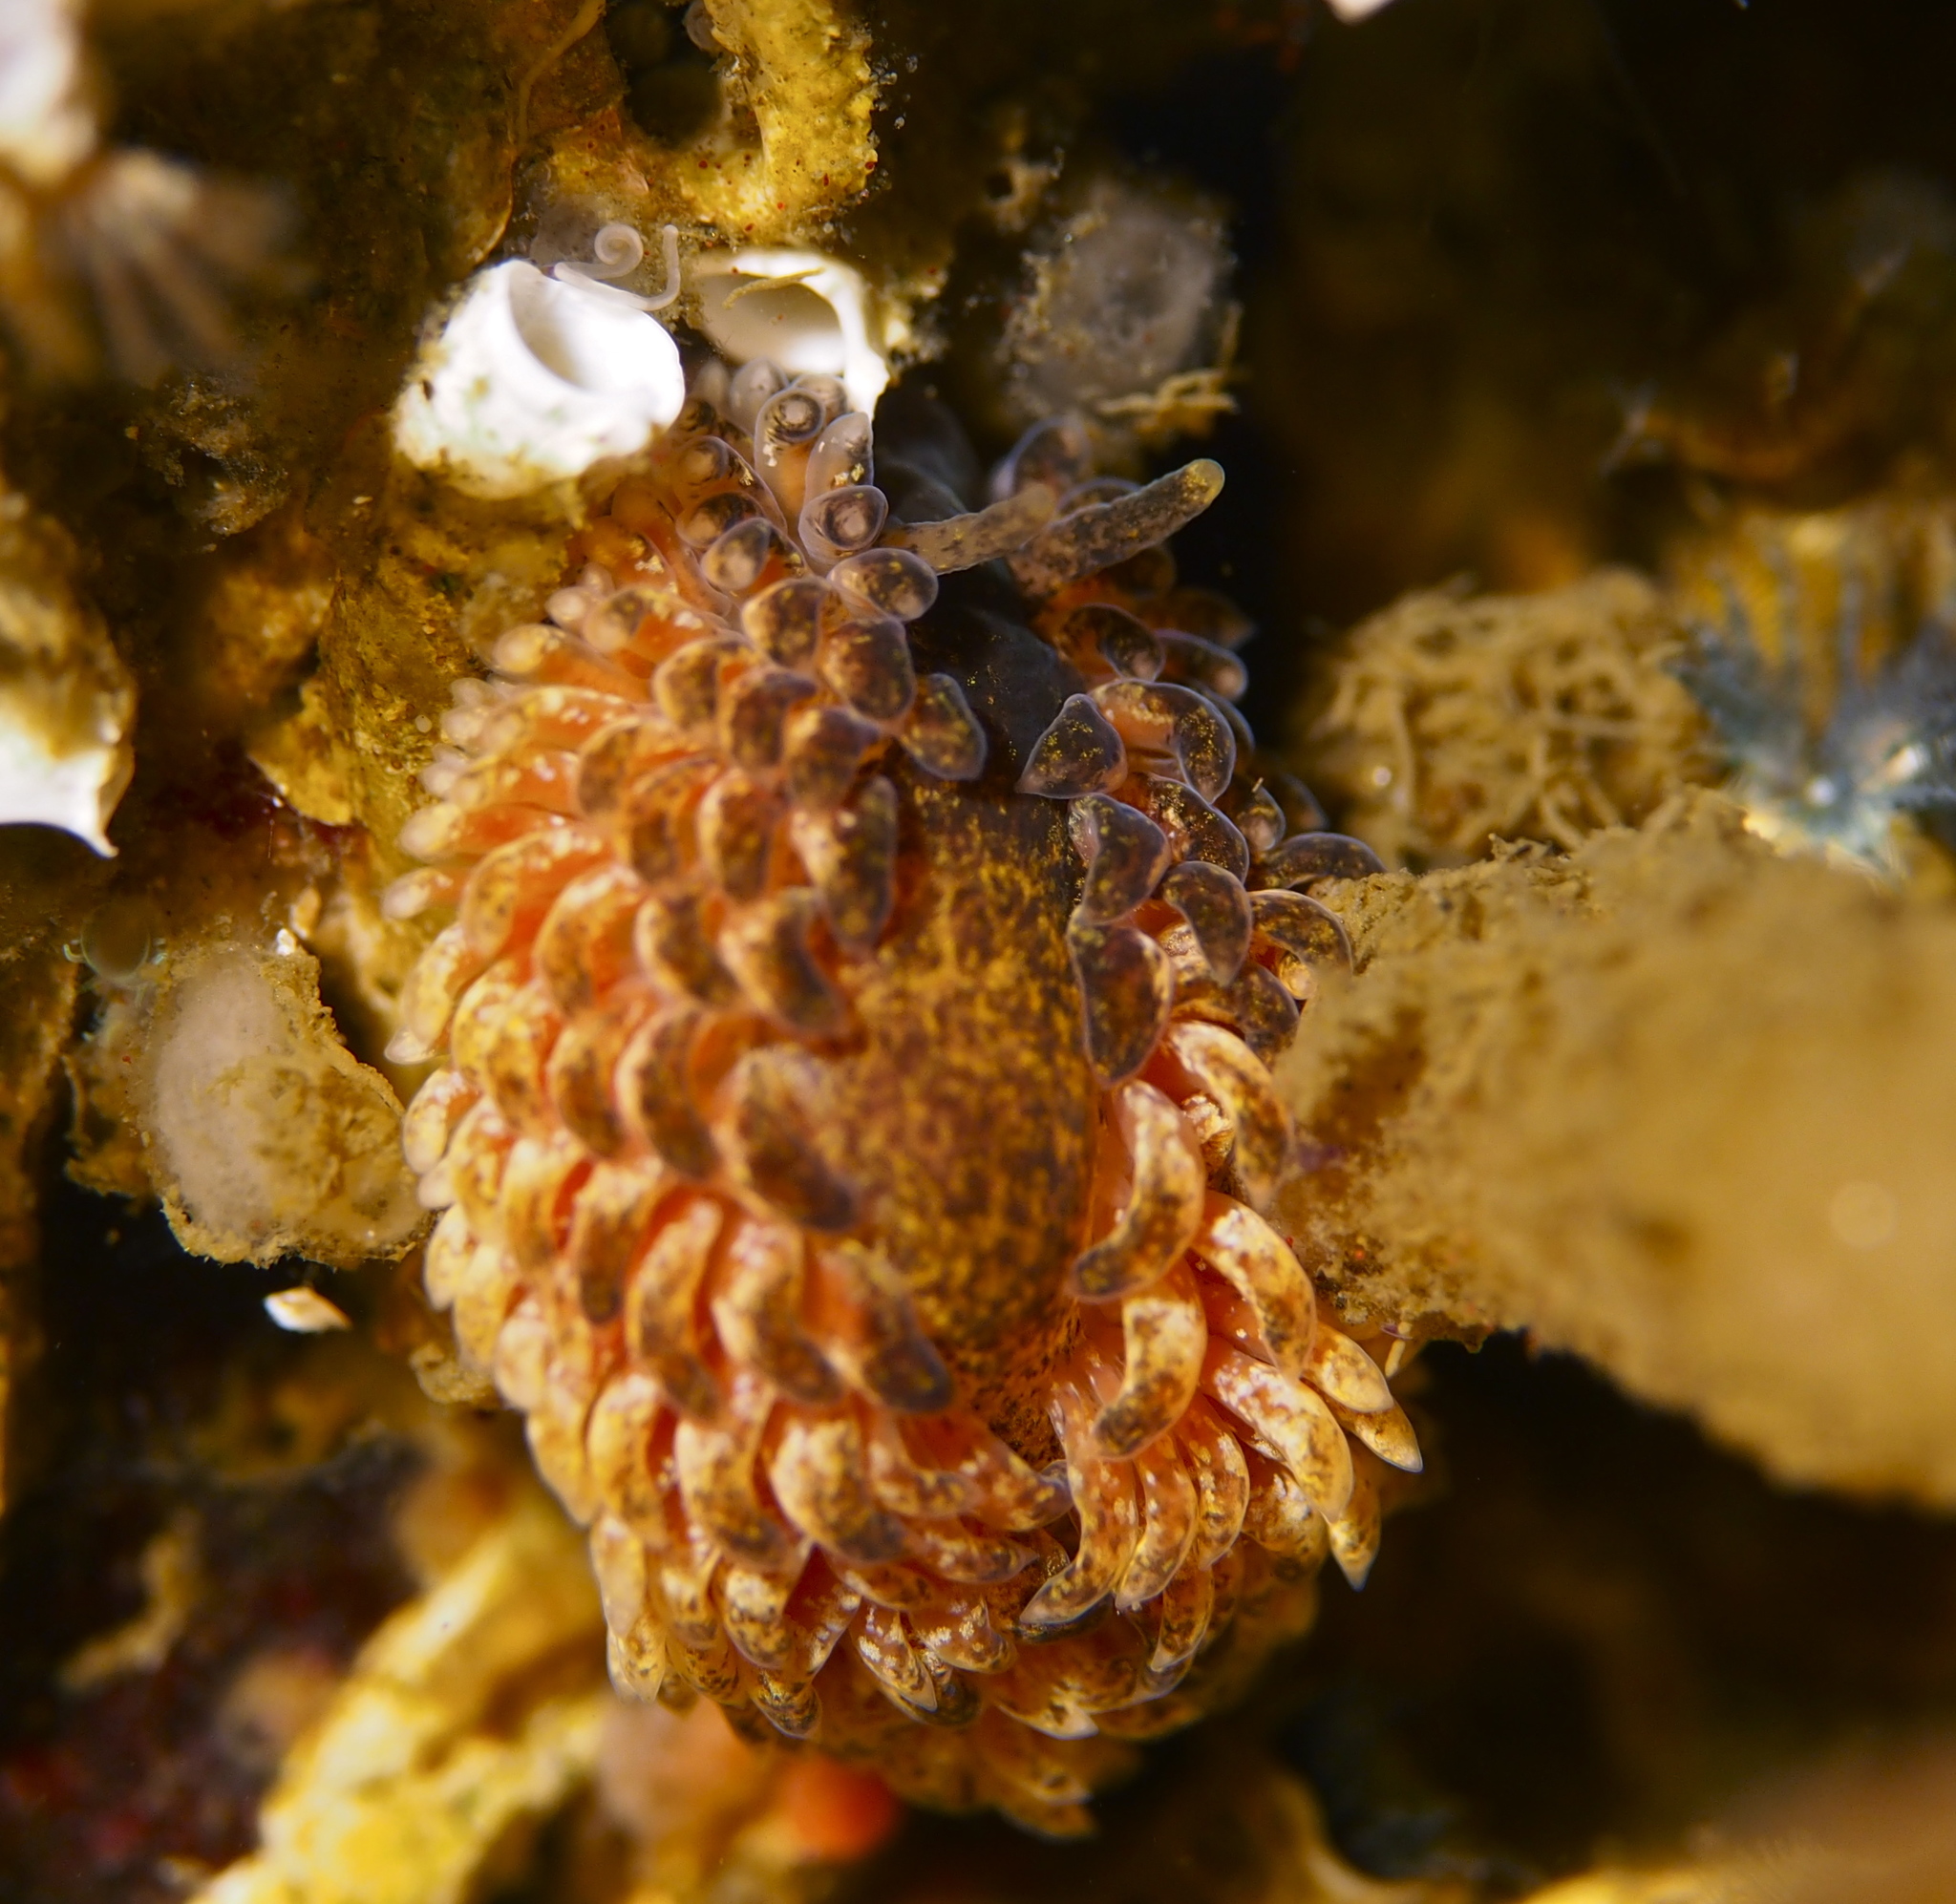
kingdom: Animalia
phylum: Mollusca
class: Gastropoda
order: Nudibranchia
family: Aeolidiidae
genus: Aeolidia
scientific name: Aeolidia papillosa
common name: Common grey sea slug
